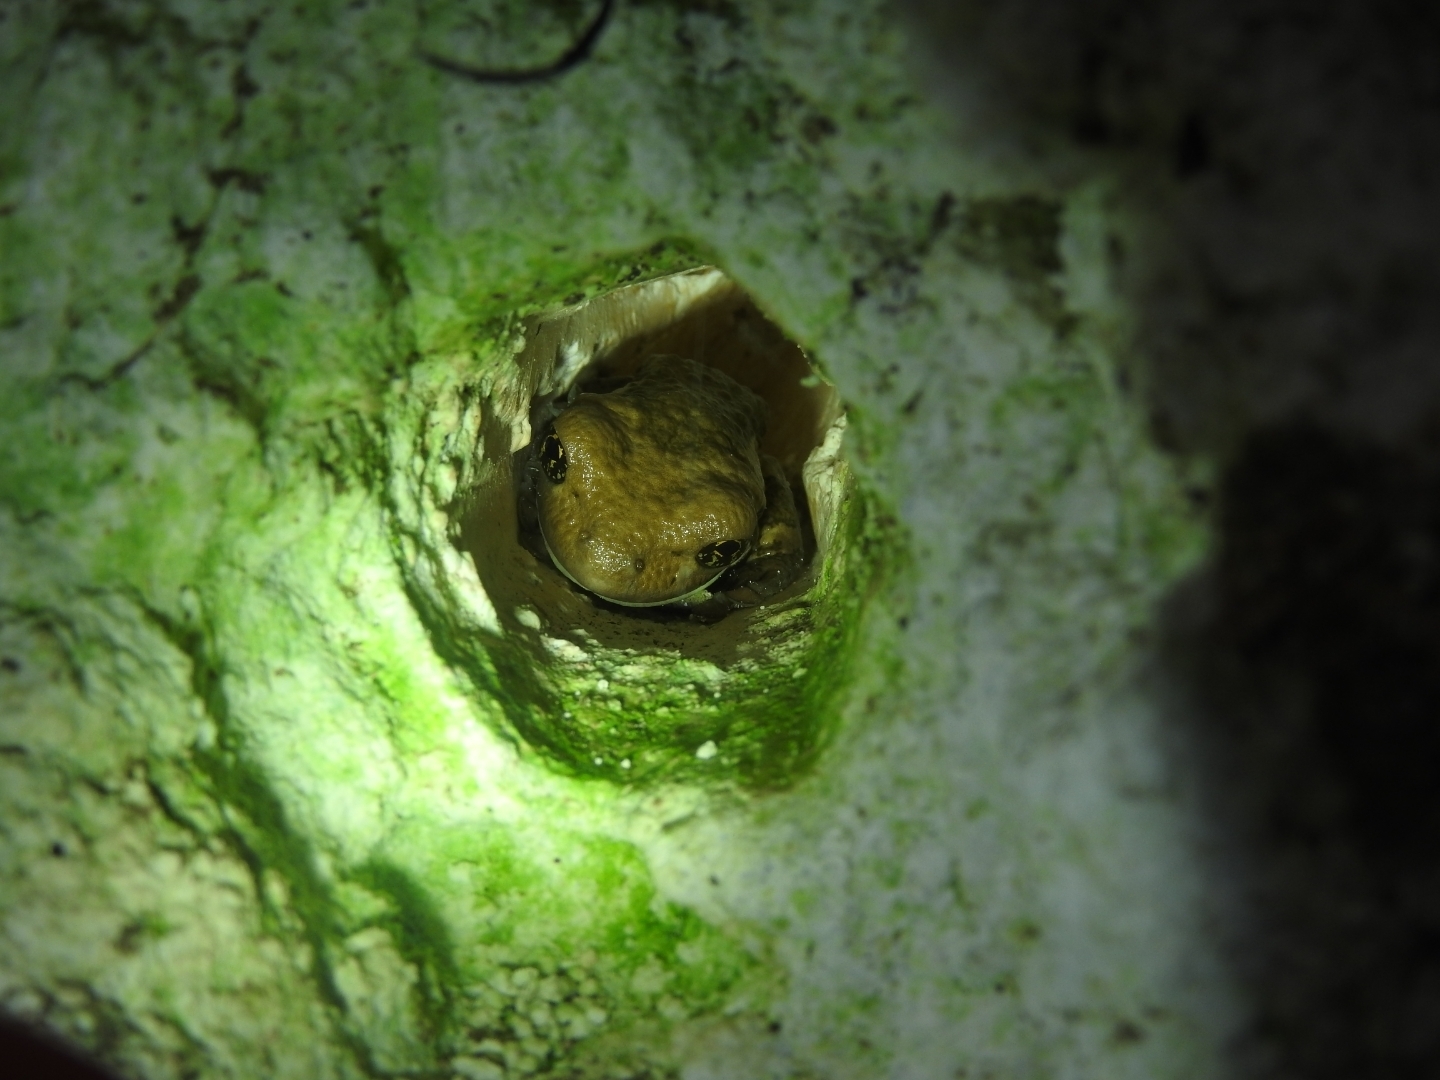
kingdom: Animalia
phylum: Chordata
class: Amphibia
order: Anura
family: Hylidae
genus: Trachycephalus
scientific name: Trachycephalus vermiculatus
